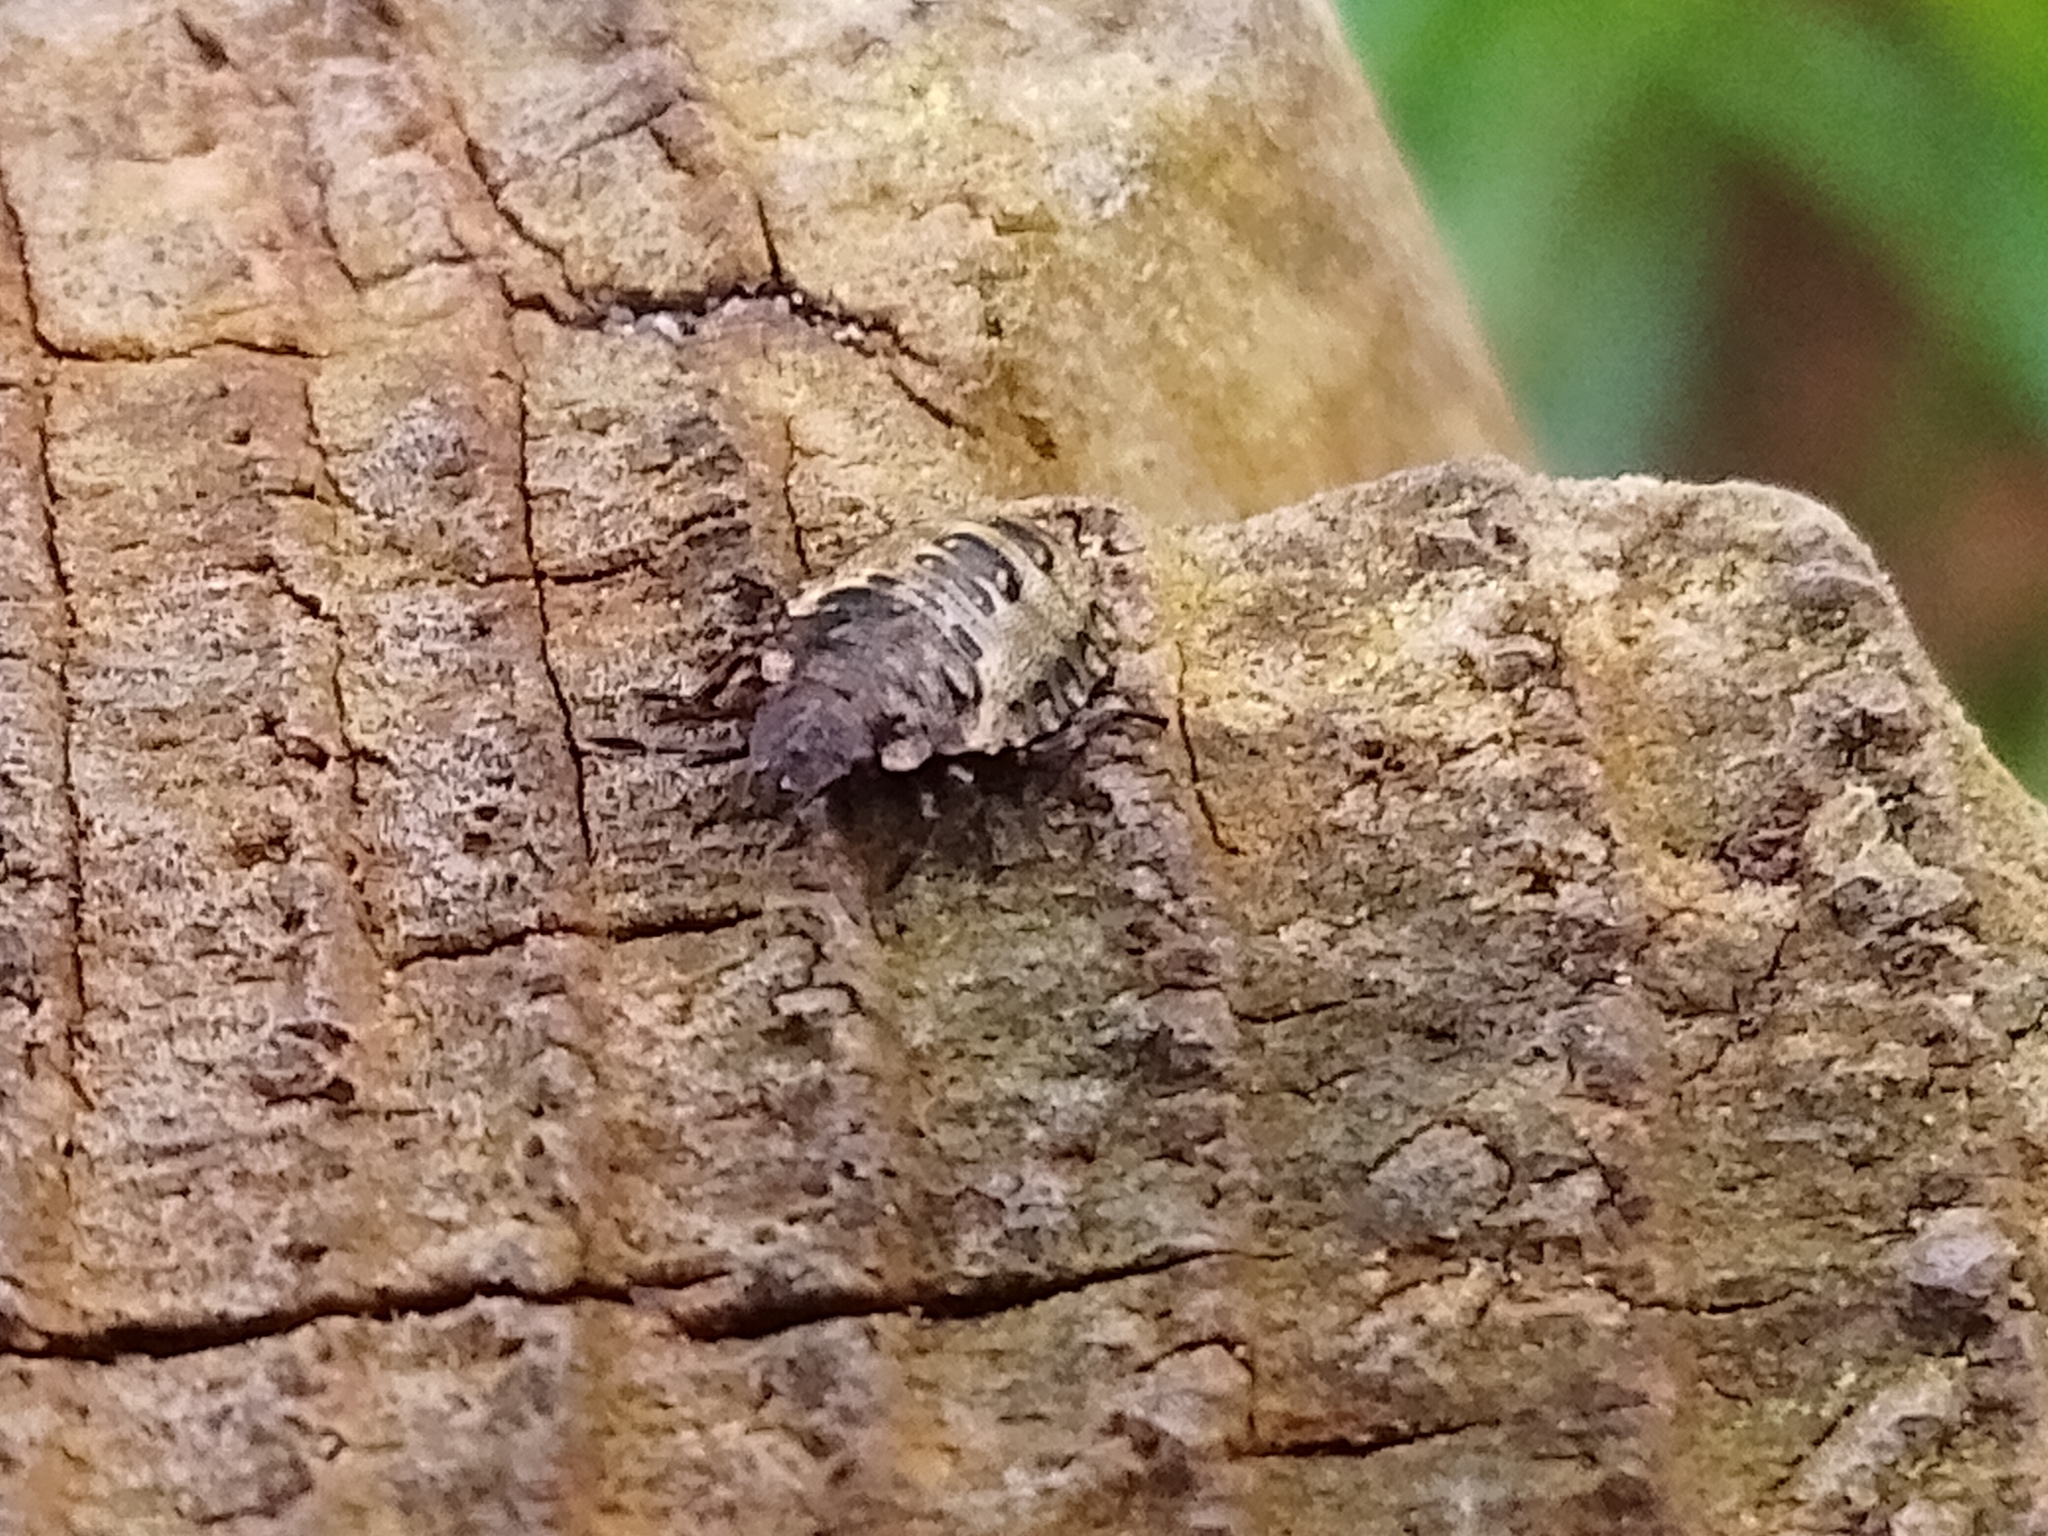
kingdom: Animalia
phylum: Arthropoda
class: Insecta
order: Hemiptera
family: Pentatomidae
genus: Pentatoma
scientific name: Pentatoma rufipes
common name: Forest bug
